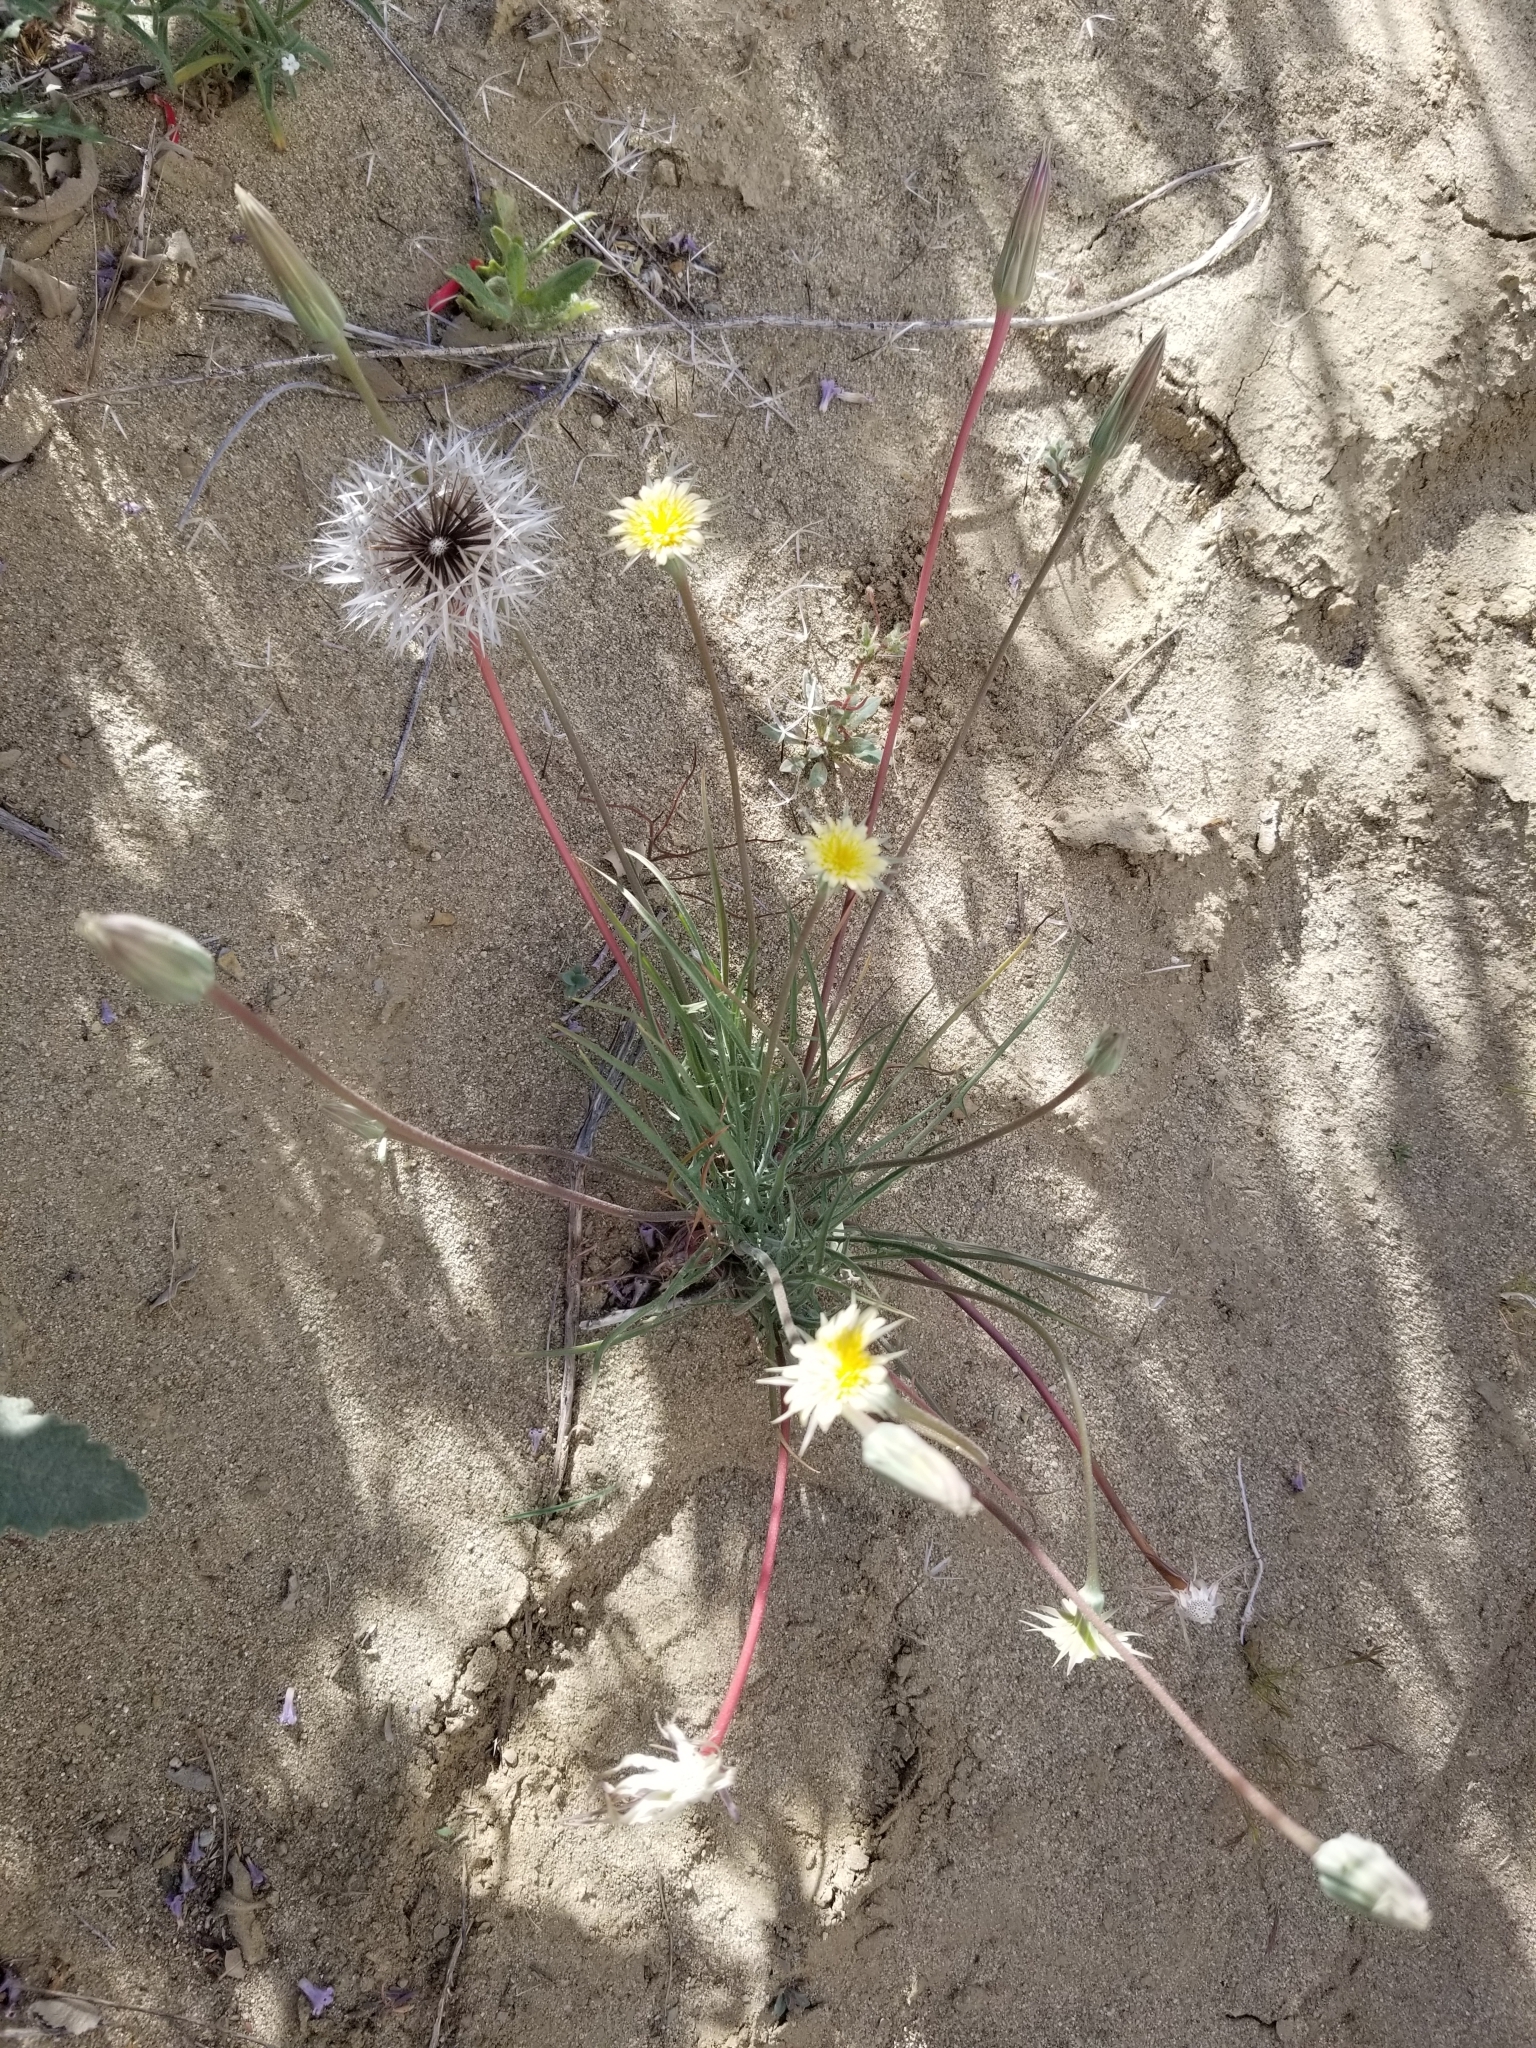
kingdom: Plantae
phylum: Tracheophyta
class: Magnoliopsida
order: Asterales
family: Asteraceae
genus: Microseris
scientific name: Microseris lindleyi
